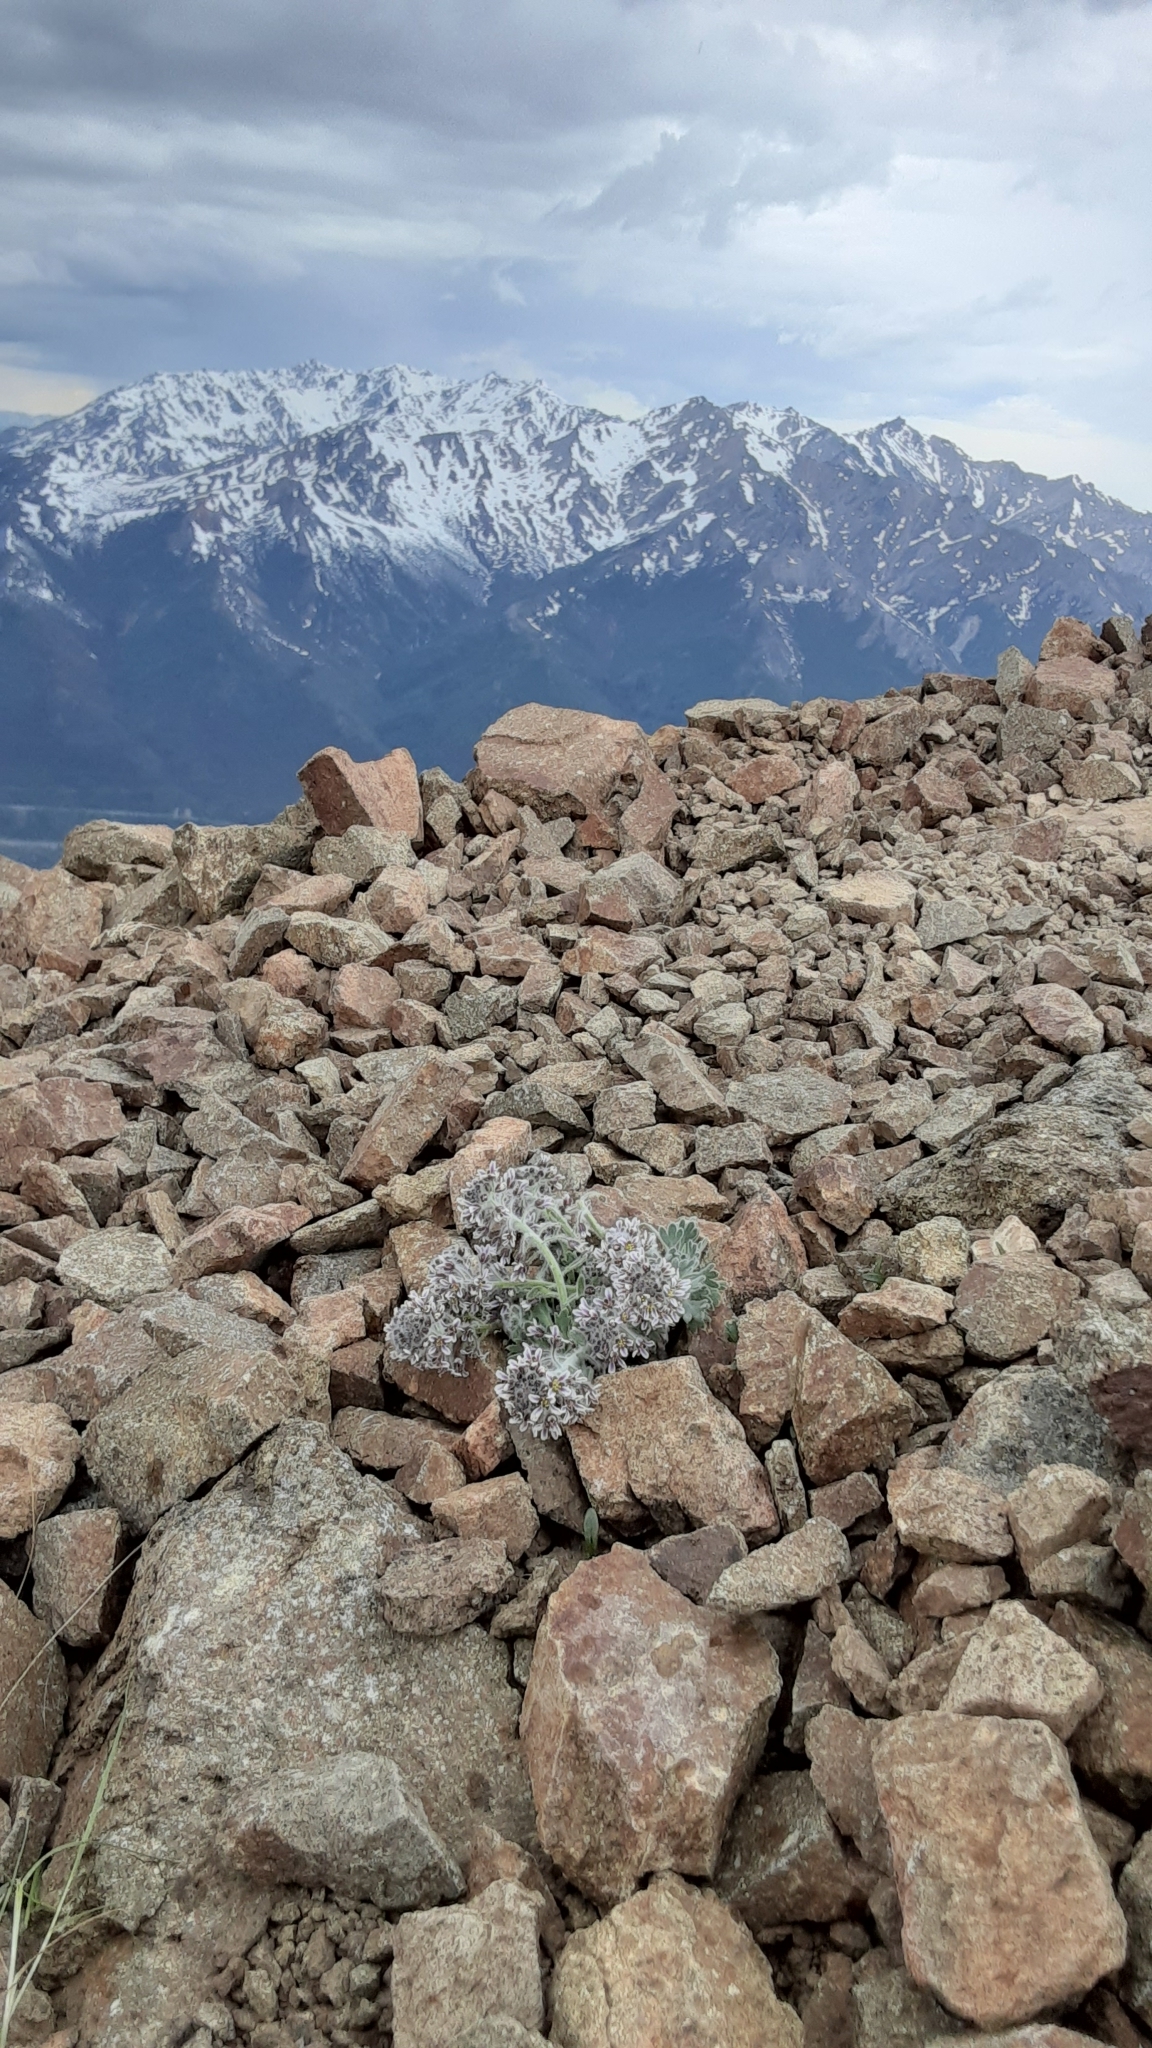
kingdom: Plantae
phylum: Tracheophyta
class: Magnoliopsida
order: Brassicales
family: Brassicaceae
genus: Smelowskia
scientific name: Smelowskia borealis
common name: False candytuft
